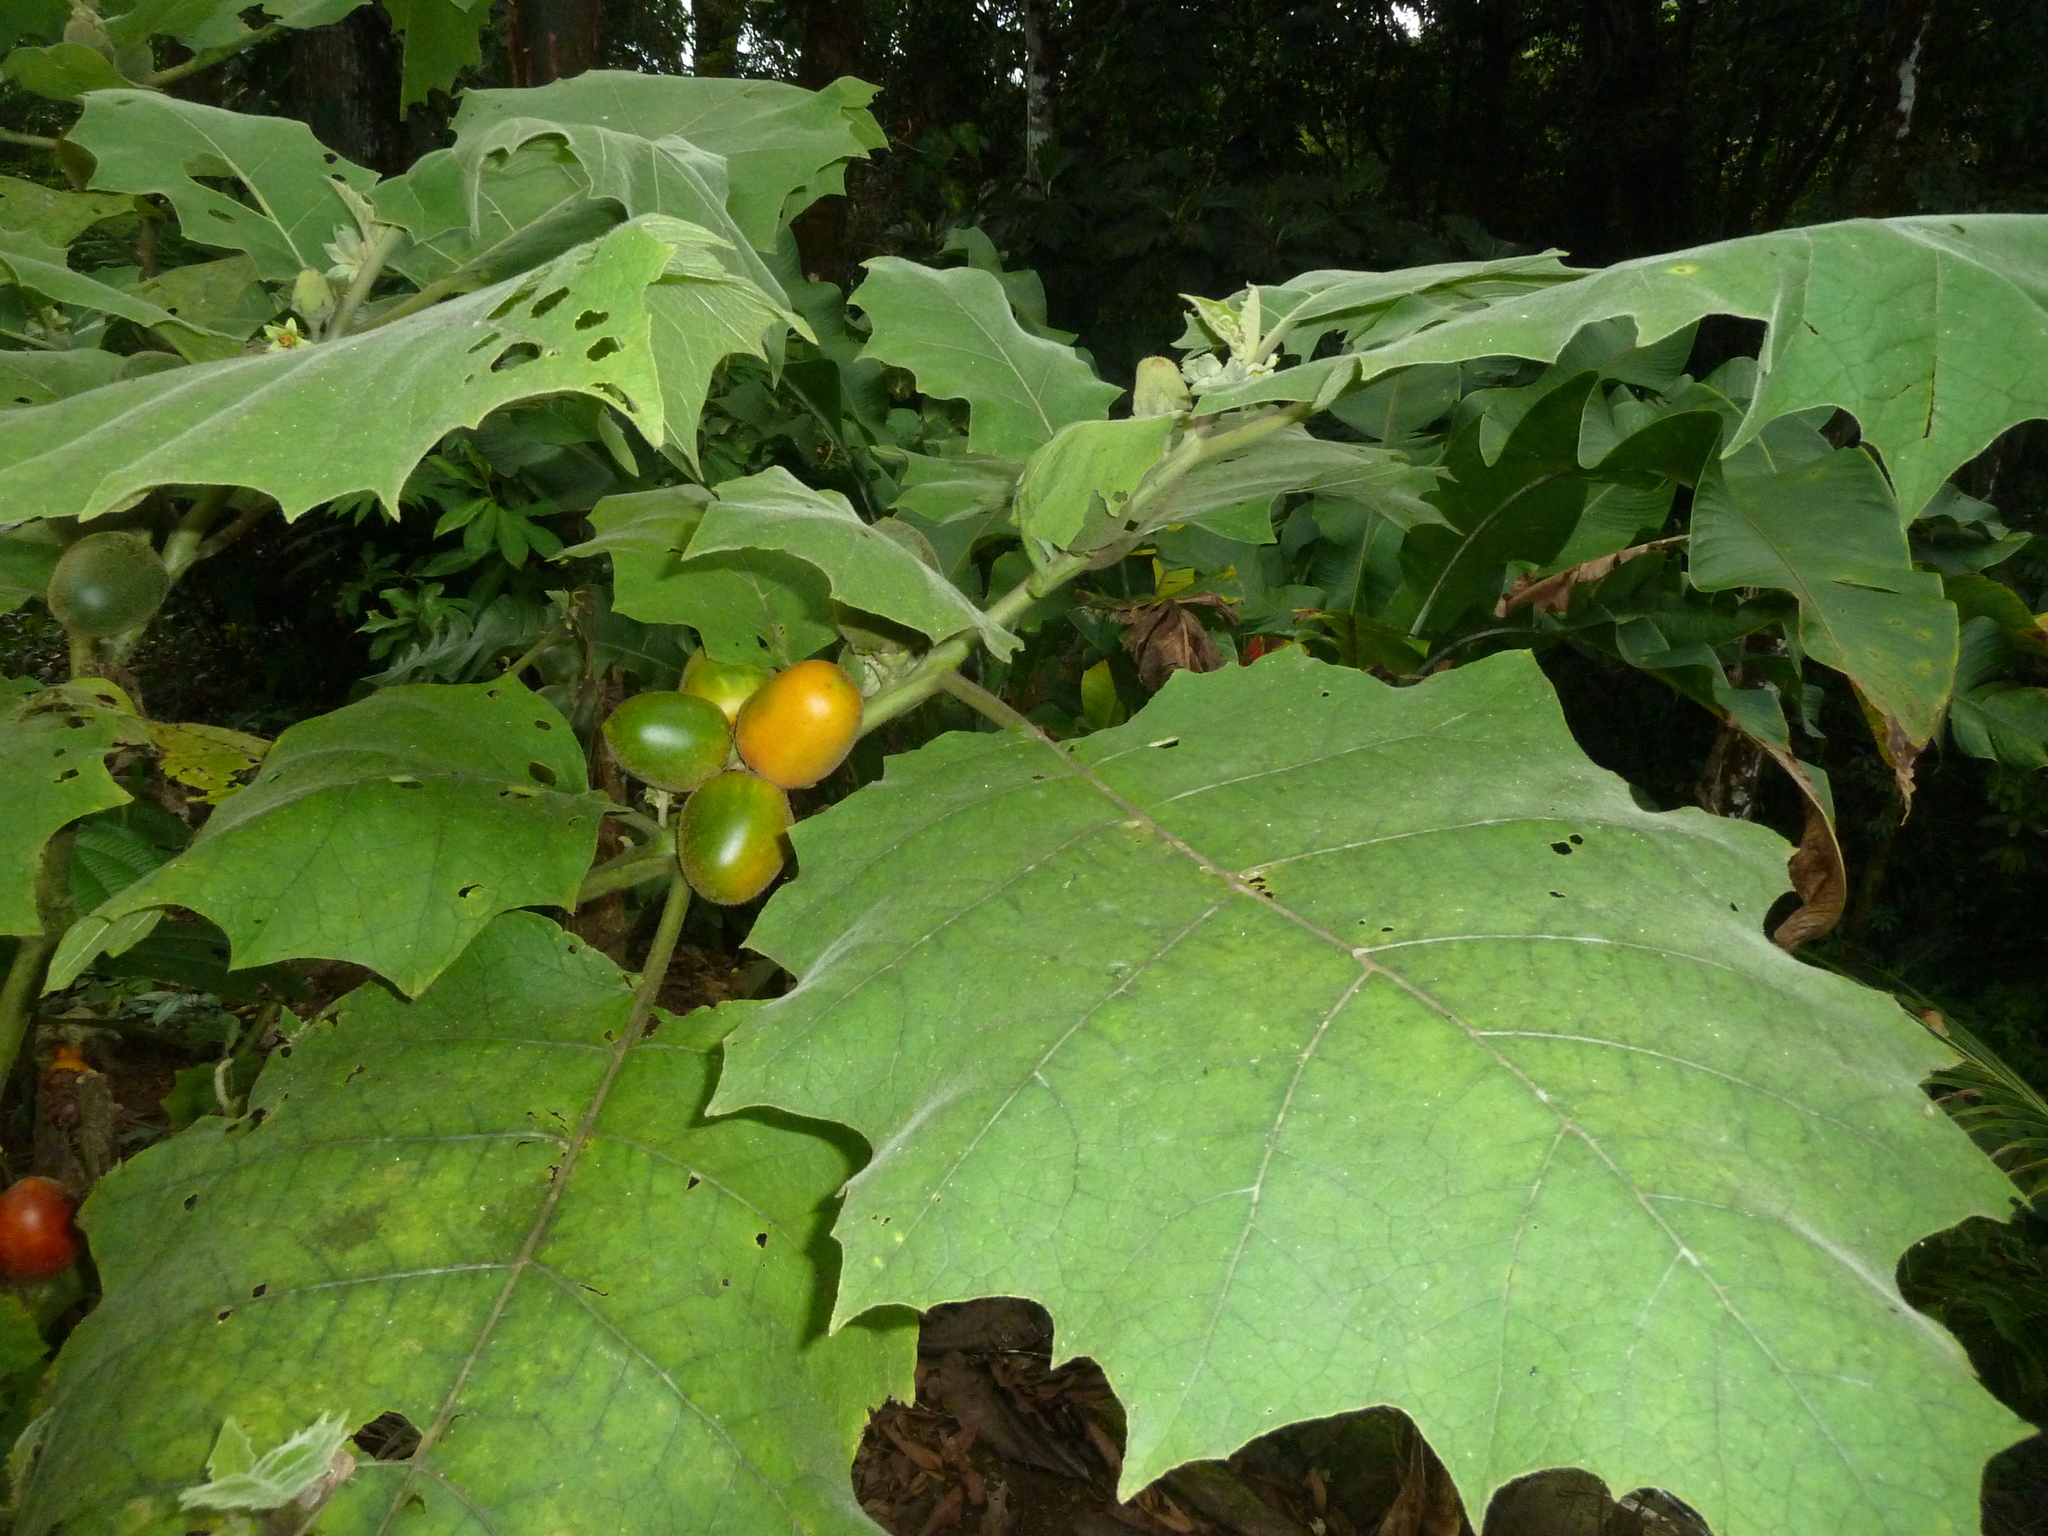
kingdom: Plantae
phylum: Tracheophyta
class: Magnoliopsida
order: Solanales
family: Solanaceae
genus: Solanum
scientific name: Solanum sessiliflorum
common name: Orinoco-apple
